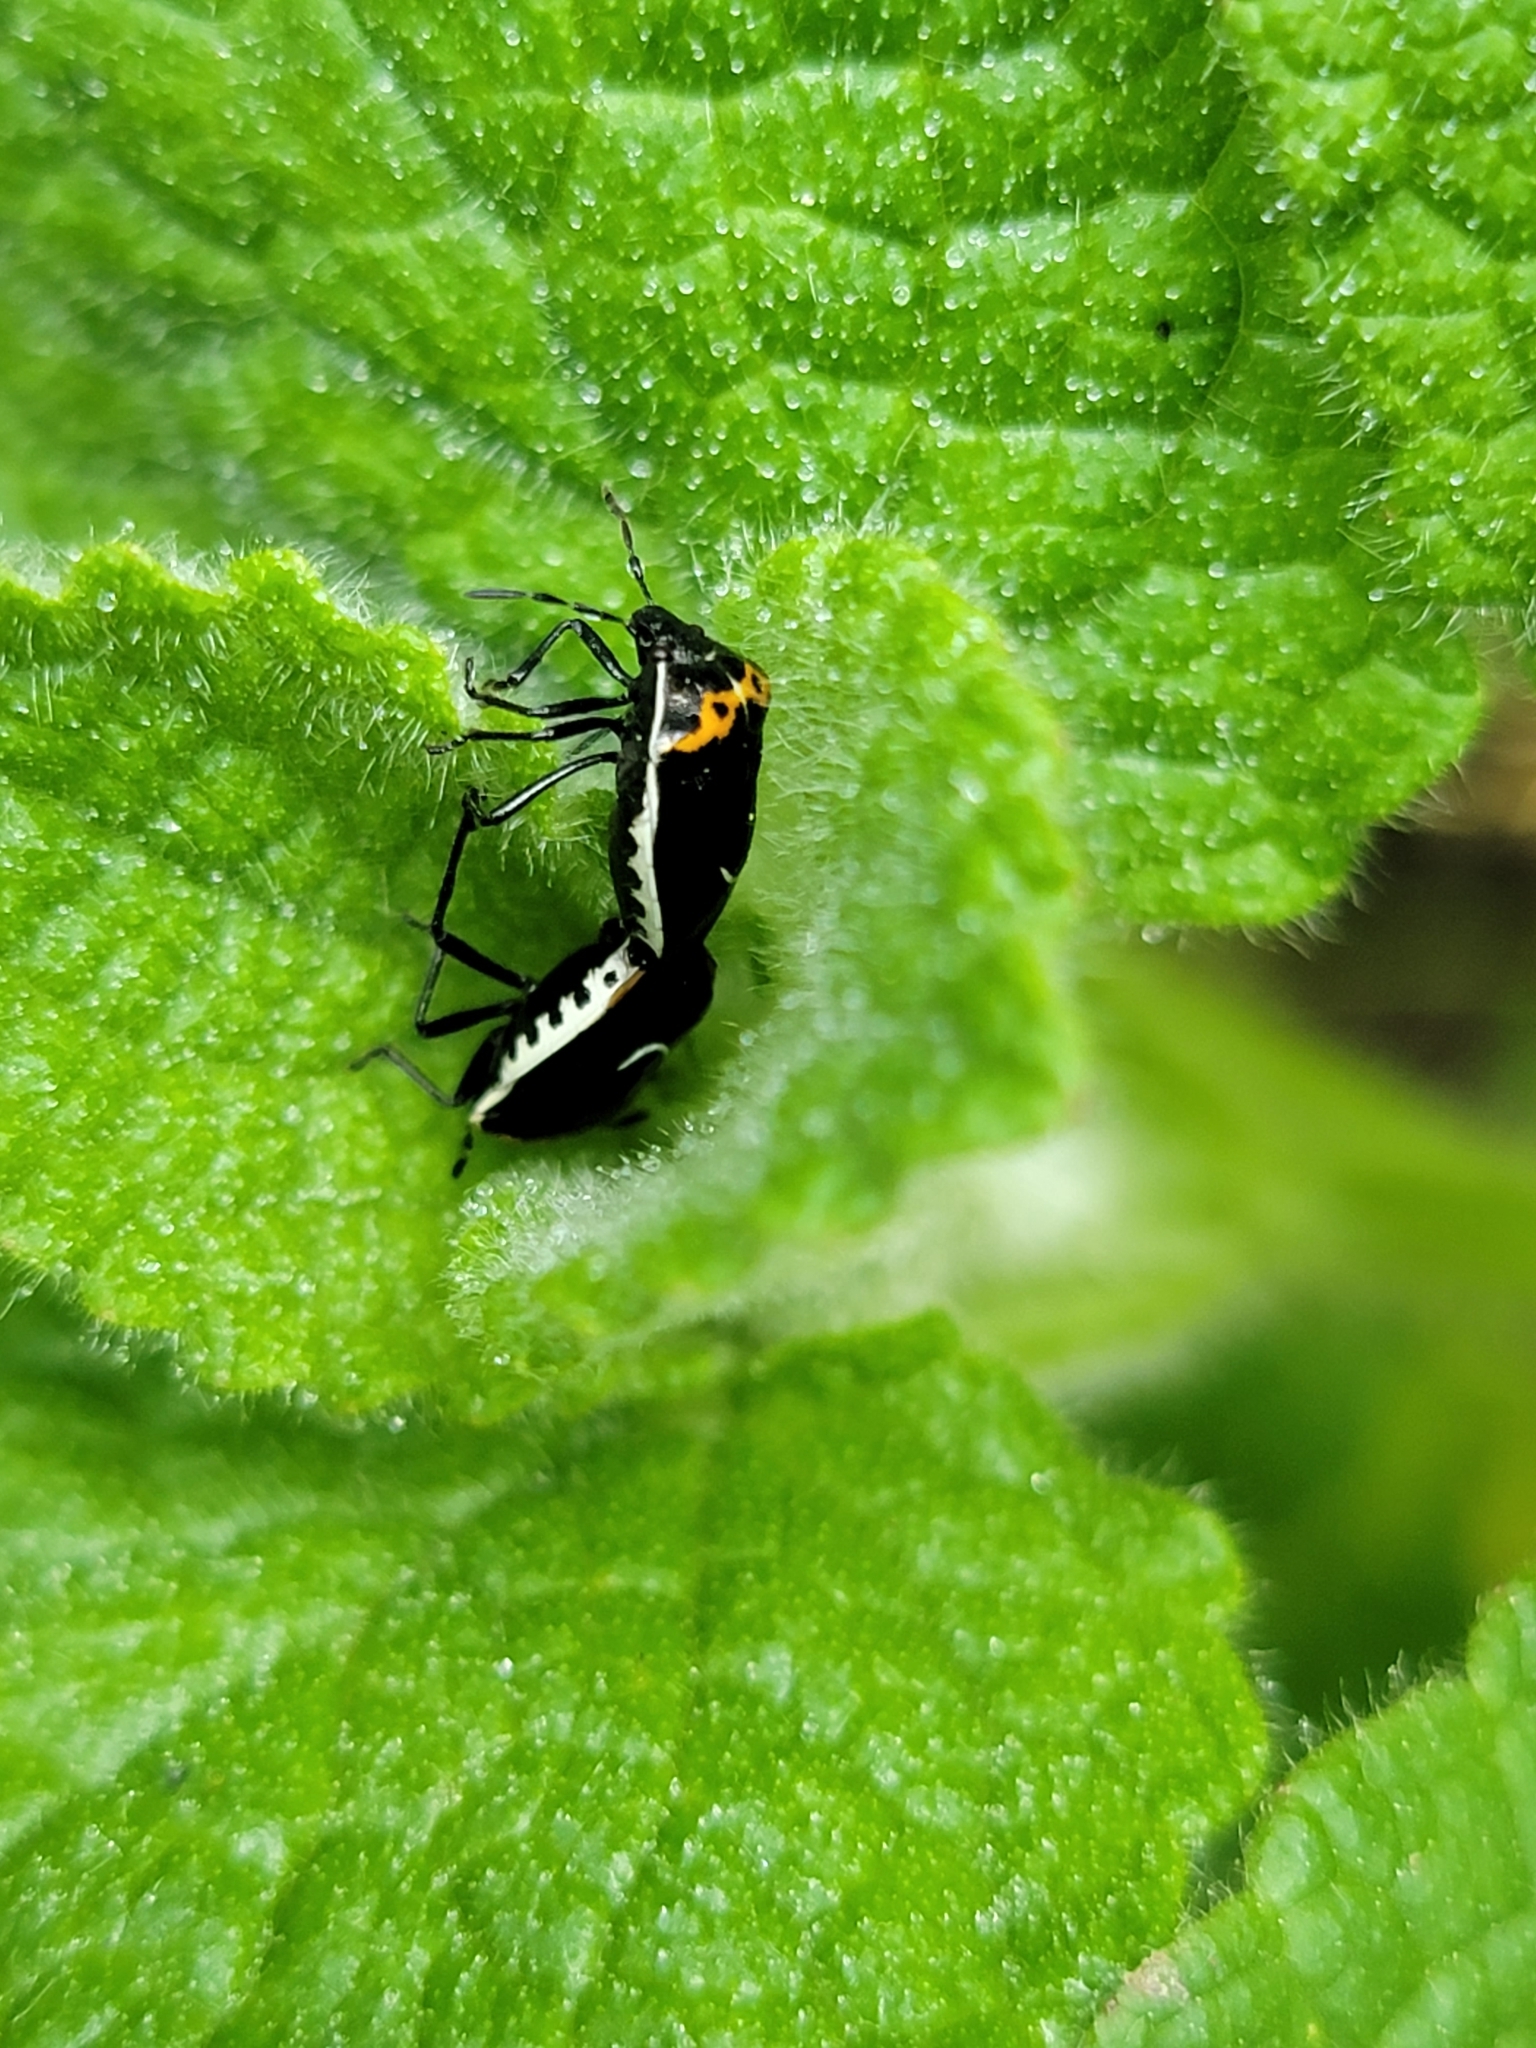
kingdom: Animalia
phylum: Arthropoda
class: Insecta
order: Hemiptera
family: Pentatomidae
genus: Cosmopepla
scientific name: Cosmopepla conspicillaris
